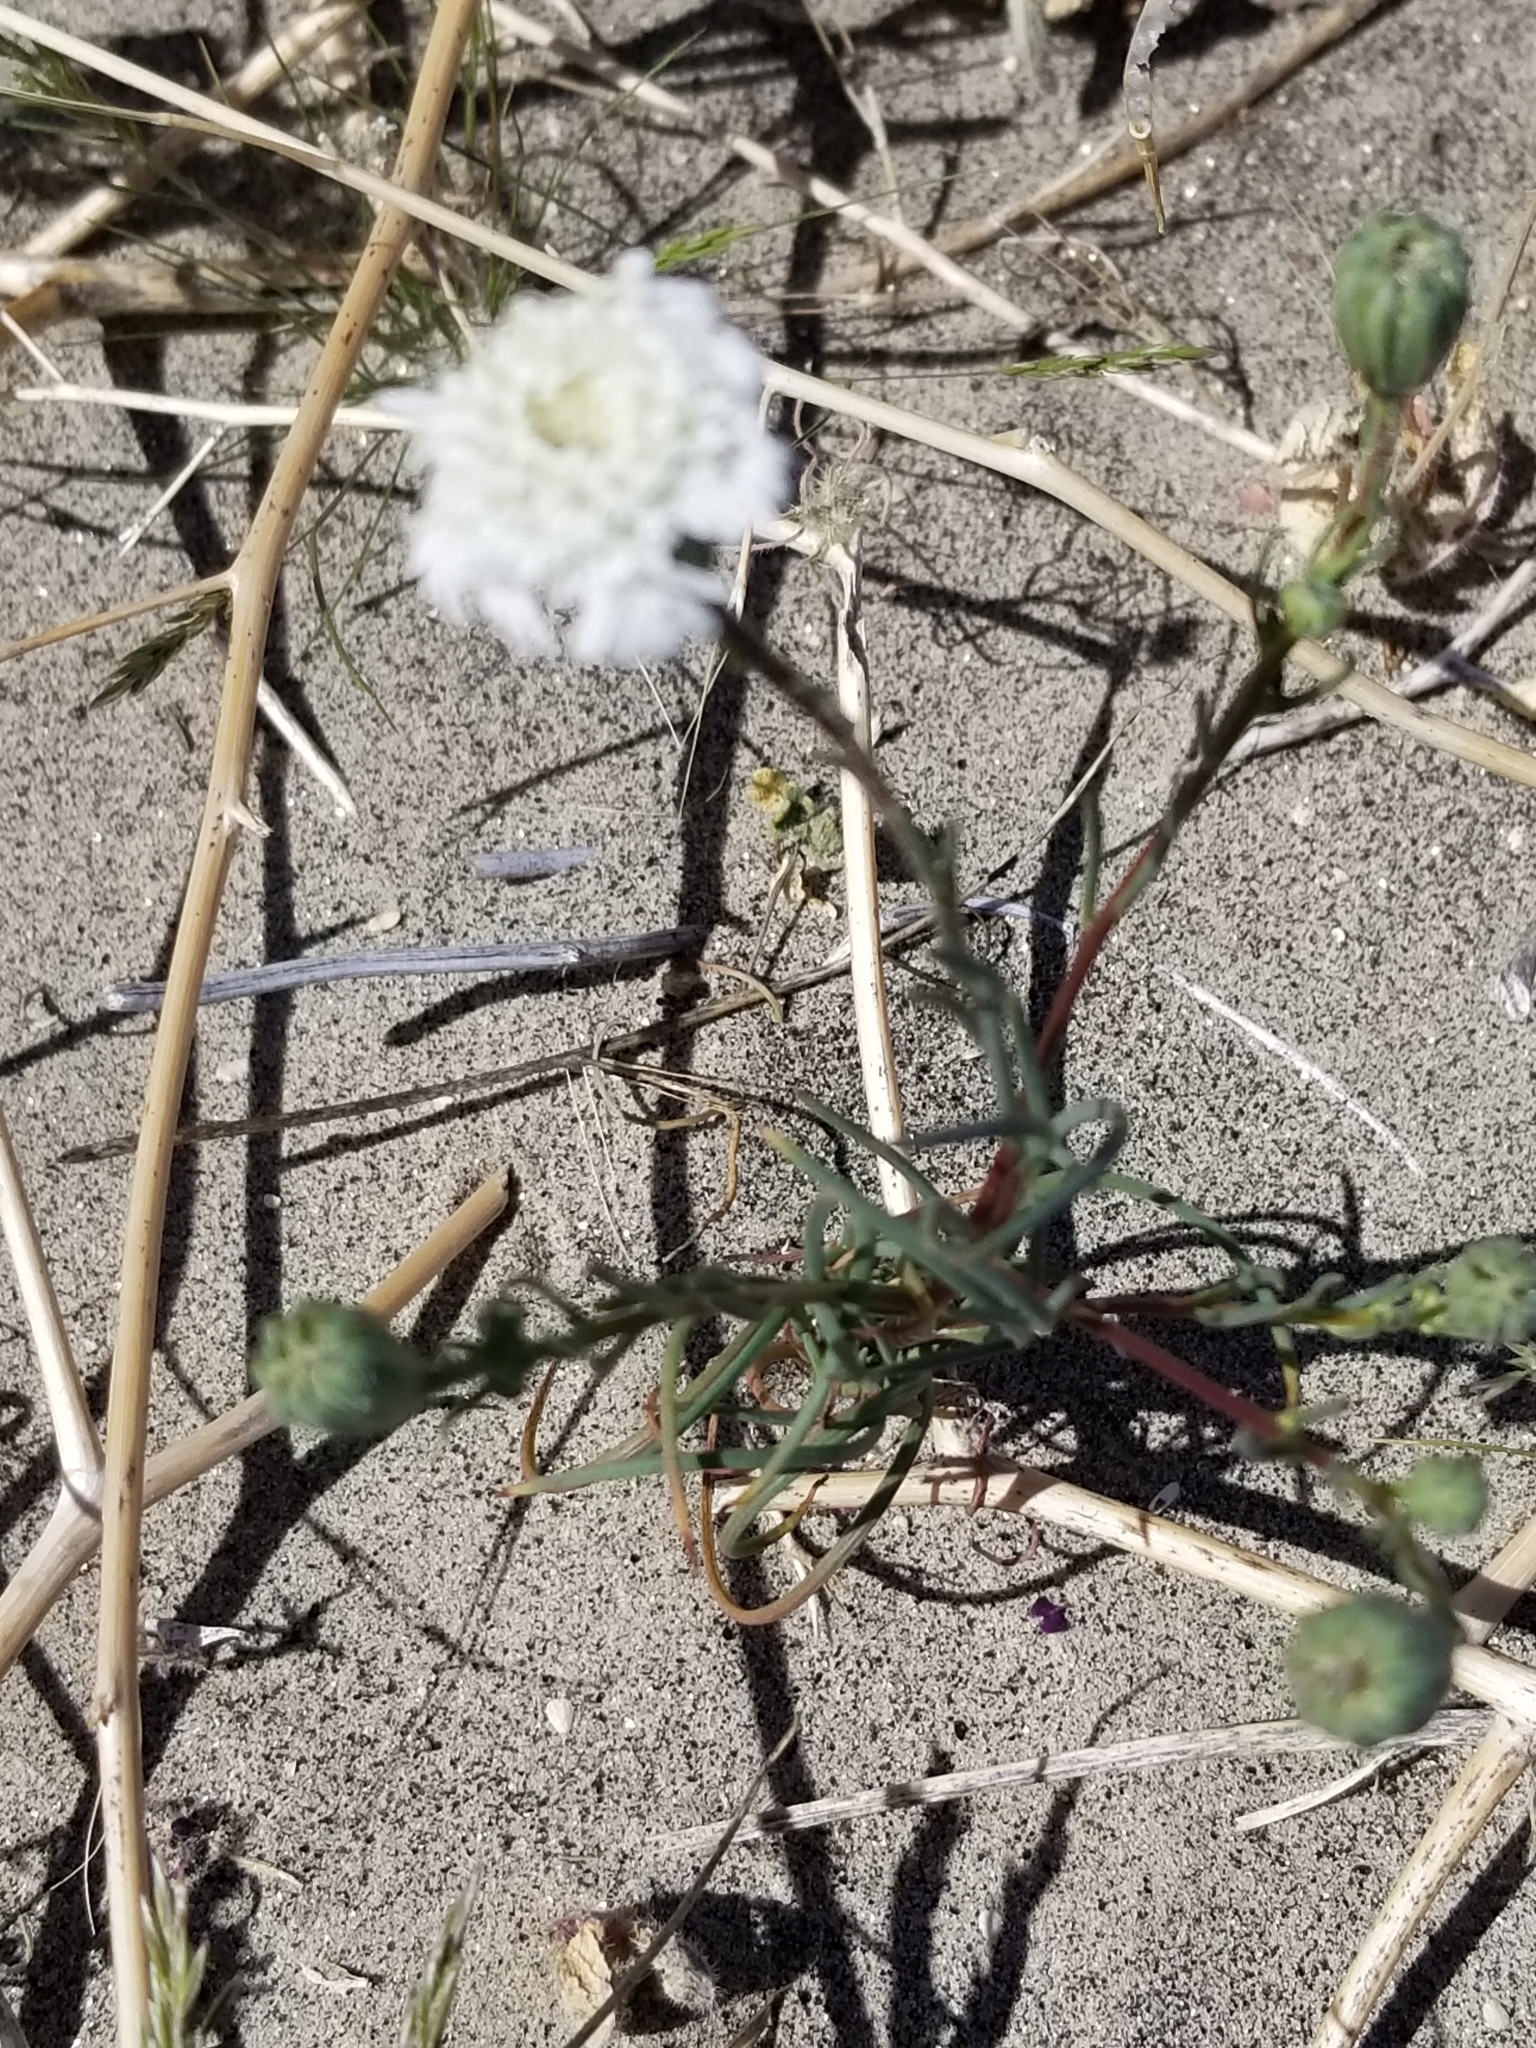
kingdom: Plantae
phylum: Tracheophyta
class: Magnoliopsida
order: Asterales
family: Asteraceae
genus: Chaenactis
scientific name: Chaenactis fremontii
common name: Fremont pincushion
